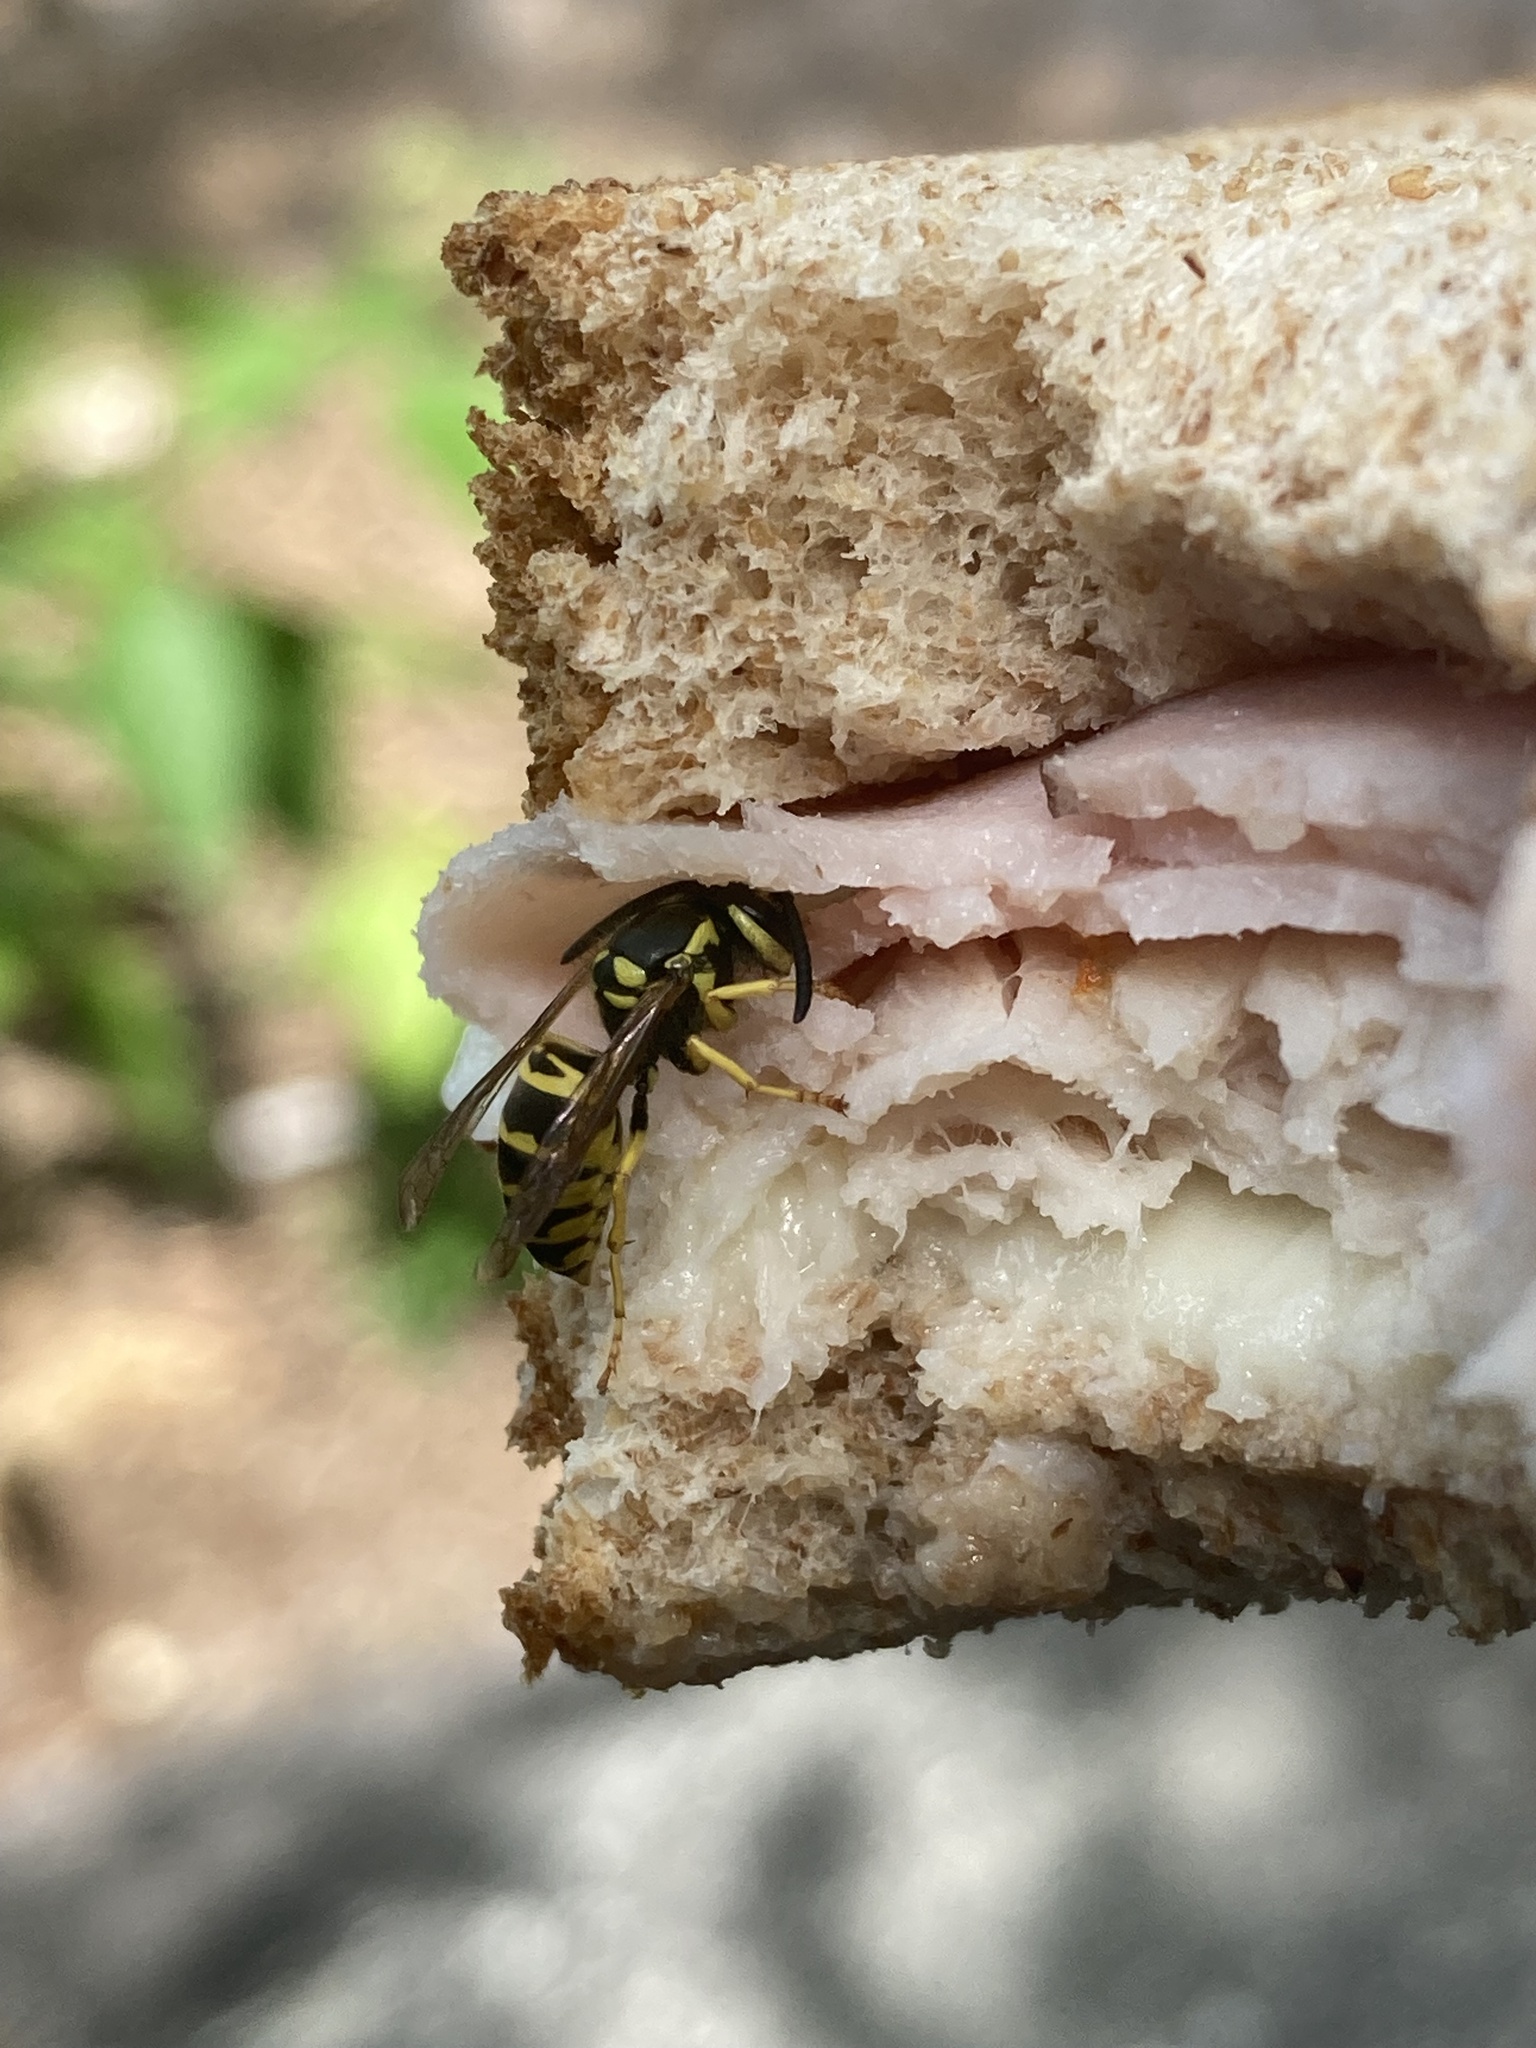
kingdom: Animalia
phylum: Arthropoda
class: Insecta
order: Hymenoptera
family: Vespidae
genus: Vespula
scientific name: Vespula maculifrons
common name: Eastern yellowjacket
